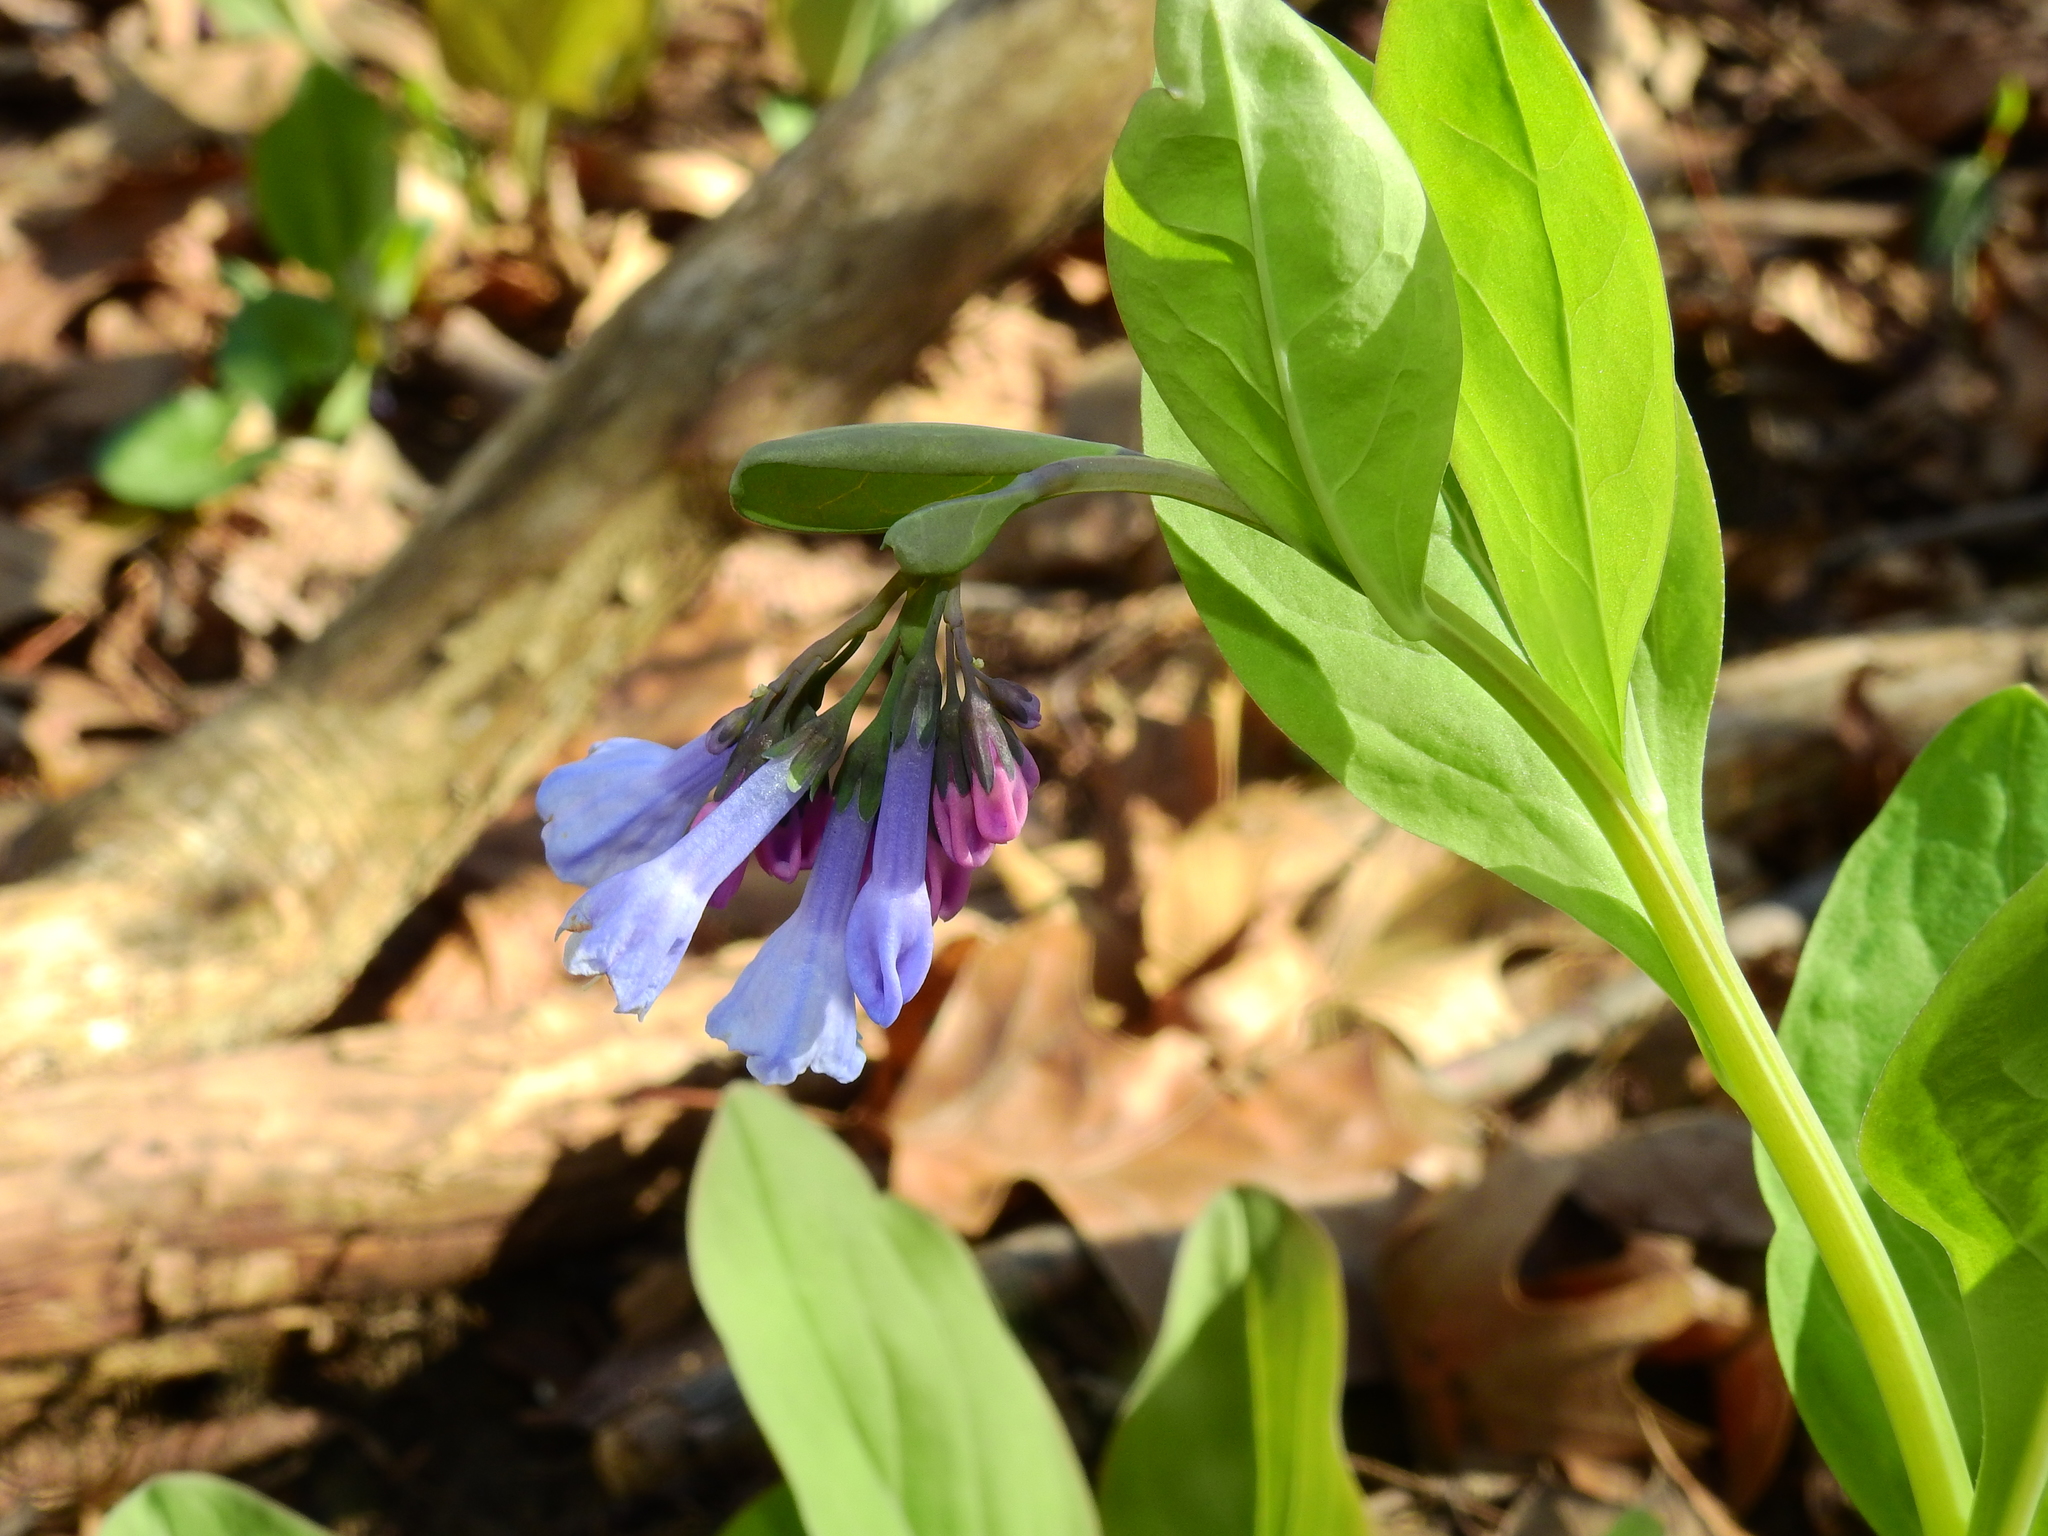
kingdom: Plantae
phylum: Tracheophyta
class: Magnoliopsida
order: Boraginales
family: Boraginaceae
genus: Mertensia
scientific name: Mertensia virginica
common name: Virginia bluebells
